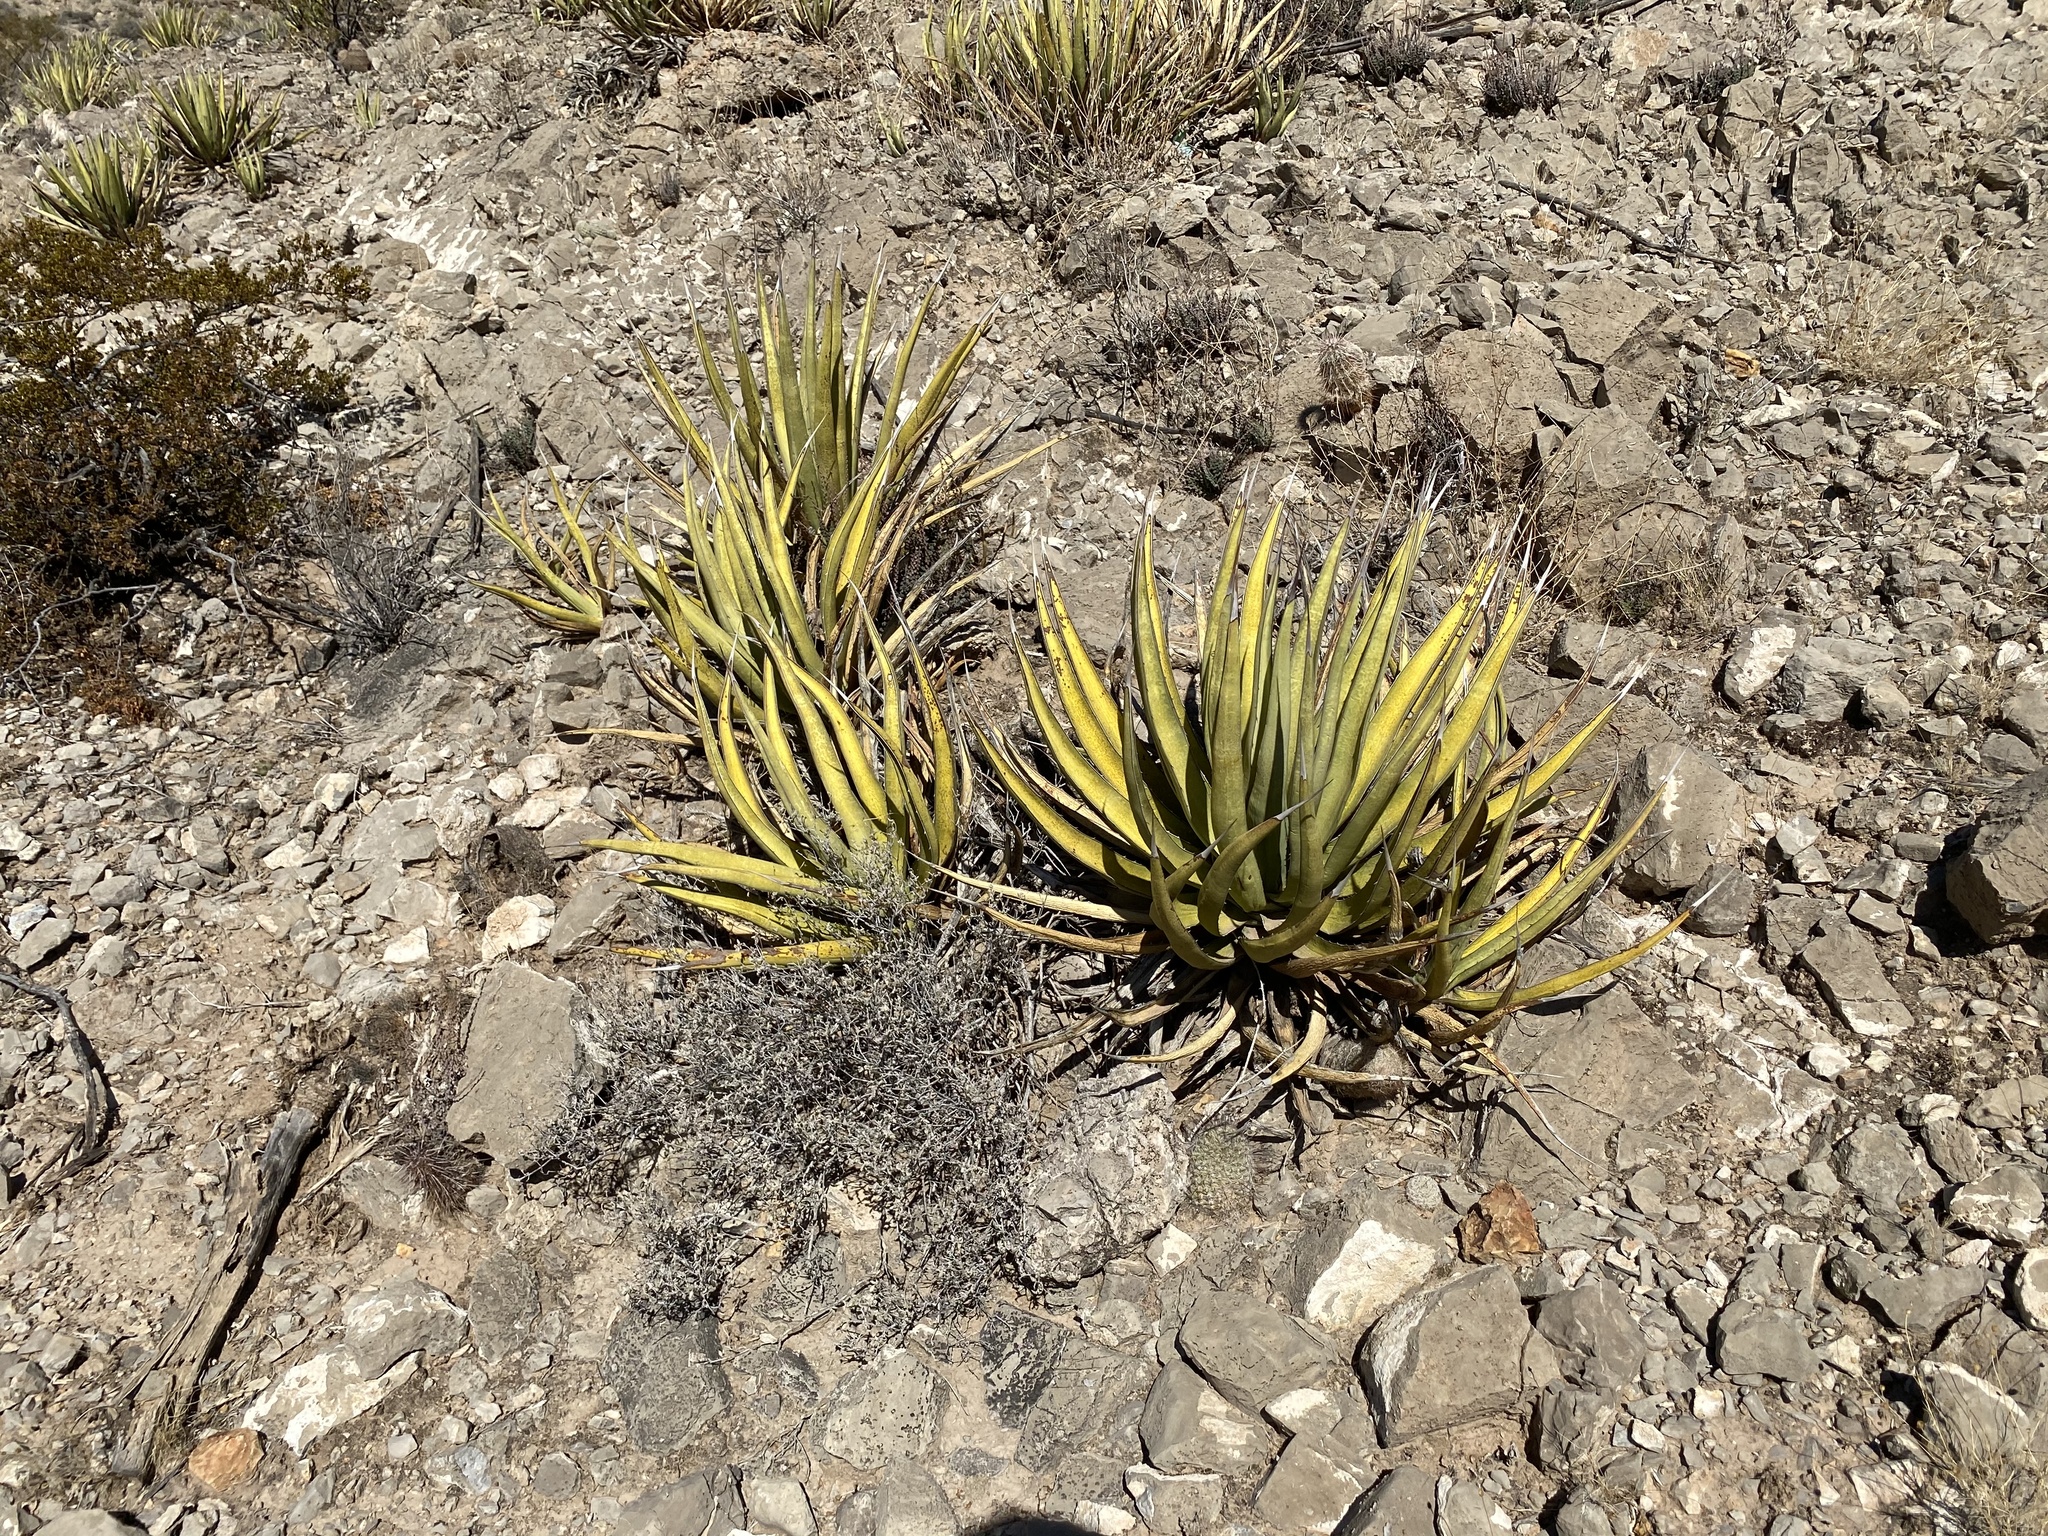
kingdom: Plantae
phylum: Tracheophyta
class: Liliopsida
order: Asparagales
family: Asparagaceae
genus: Agave
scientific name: Agave lechuguilla
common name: Lecheguilla agave
